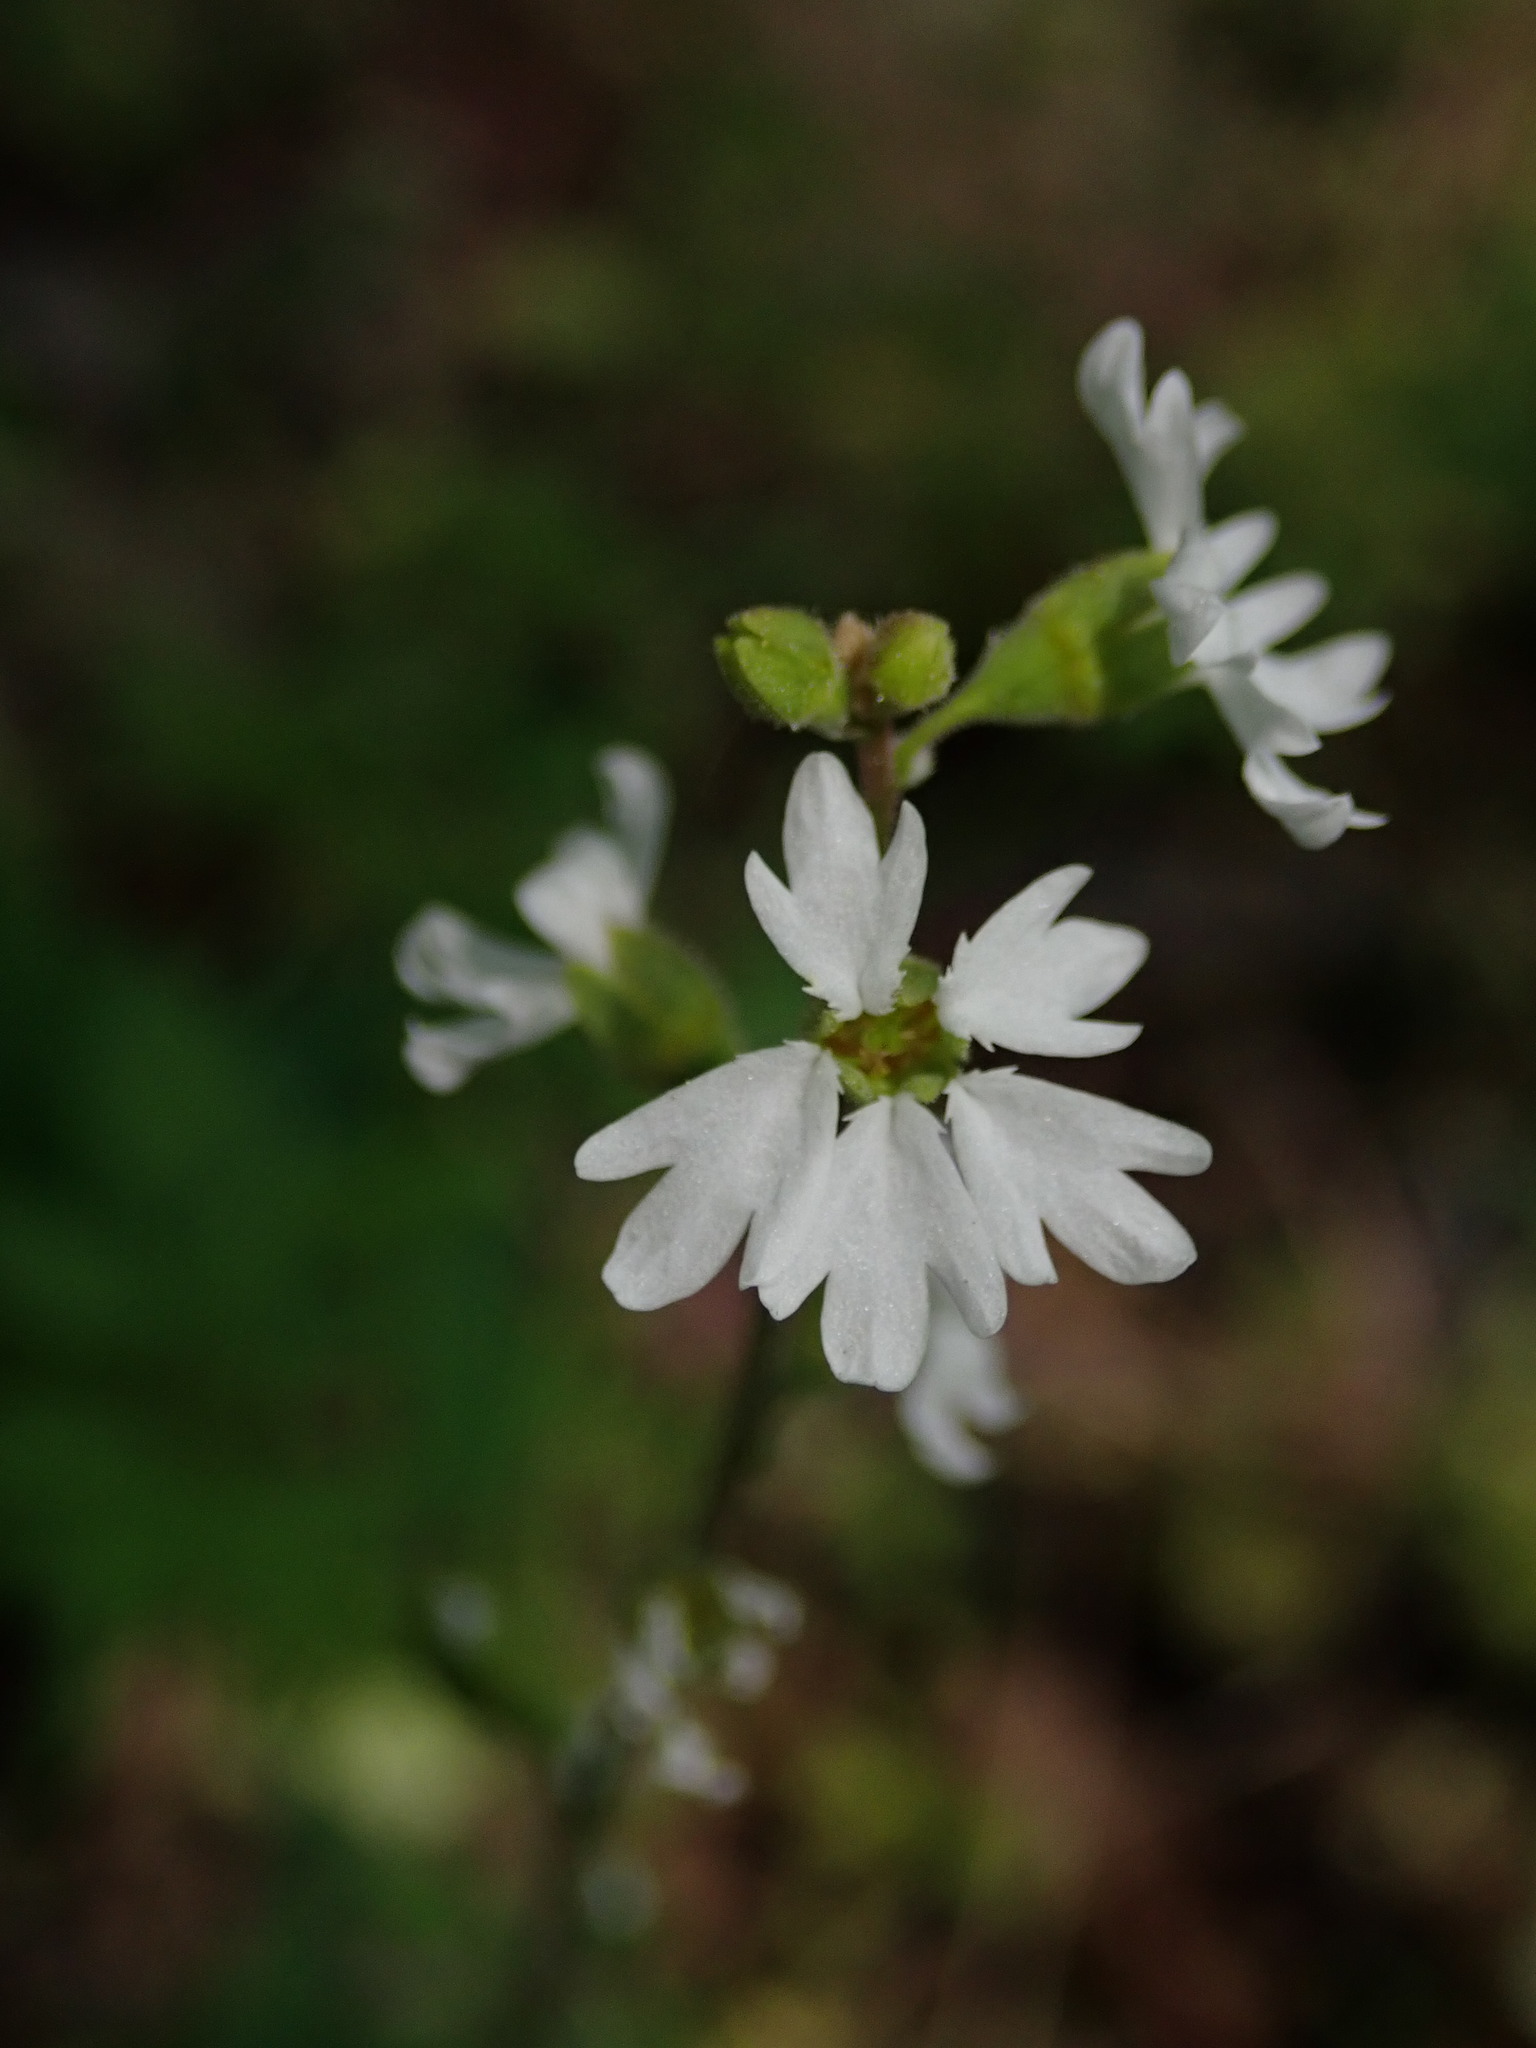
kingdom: Plantae
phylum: Tracheophyta
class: Magnoliopsida
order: Saxifragales
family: Saxifragaceae
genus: Lithophragma
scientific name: Lithophragma affine
